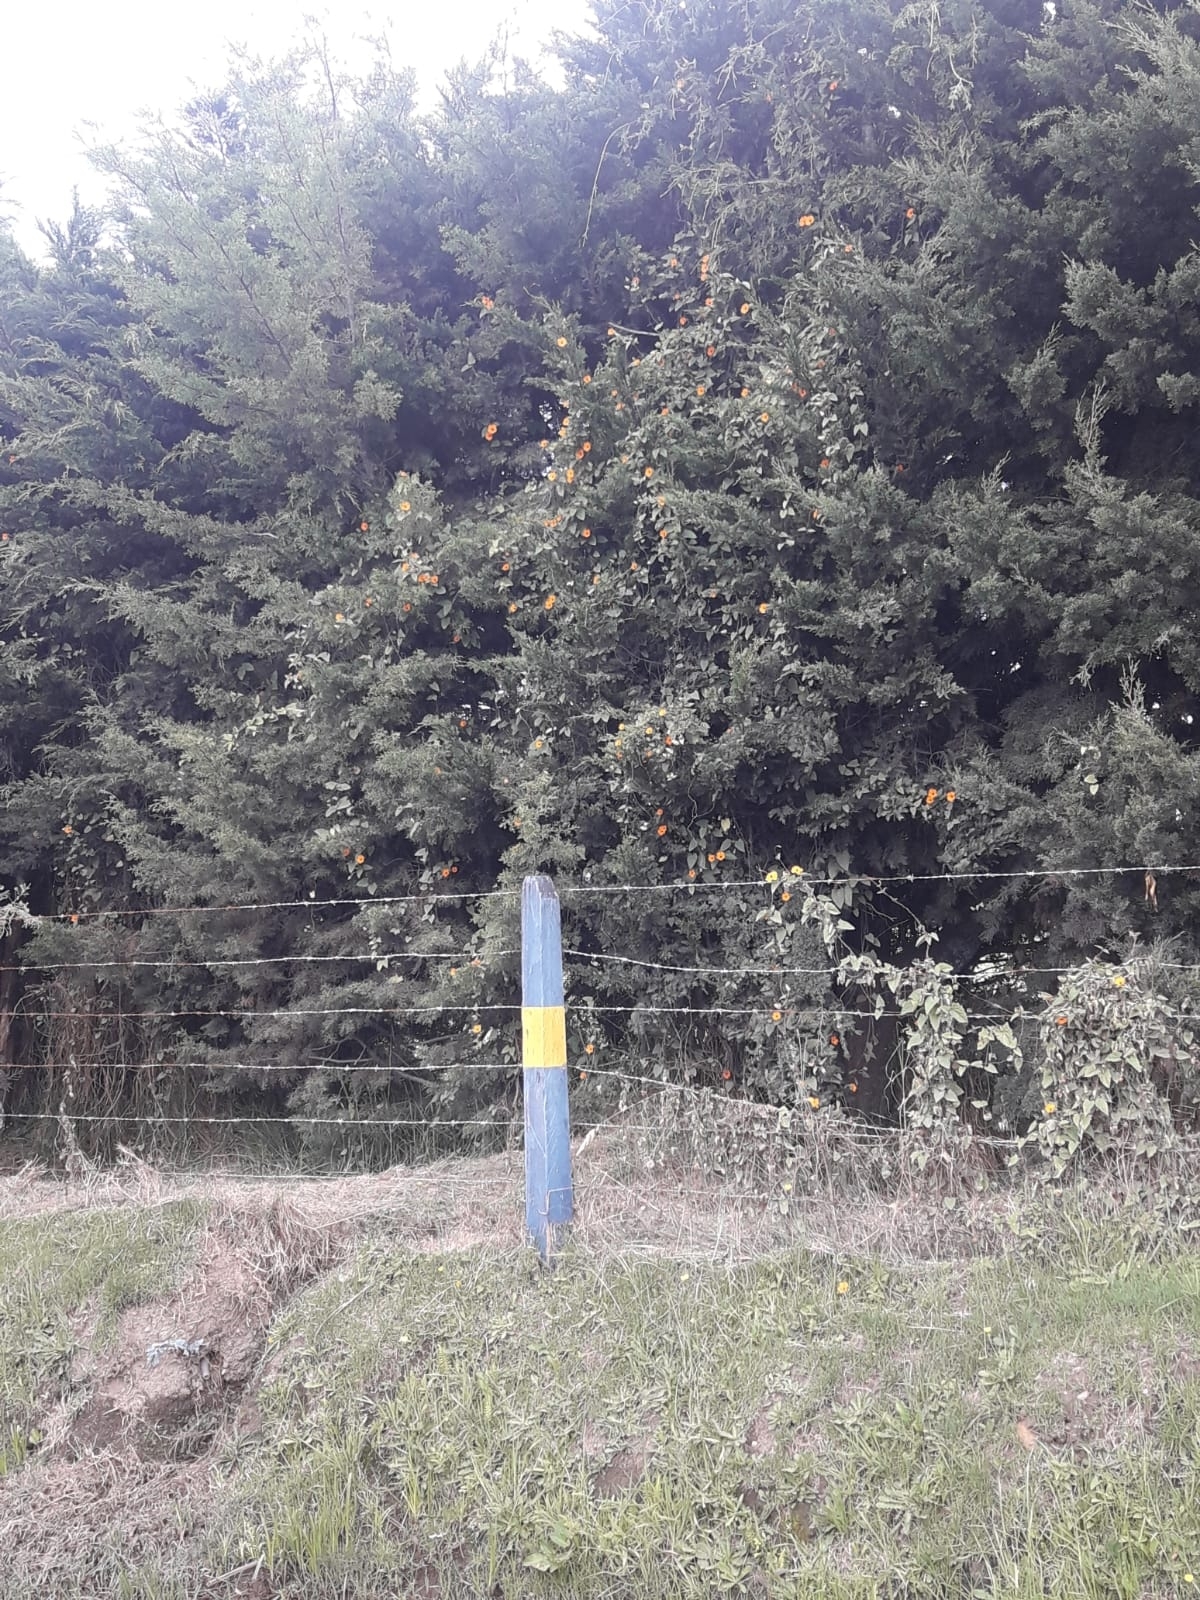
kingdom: Plantae
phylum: Tracheophyta
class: Magnoliopsida
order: Lamiales
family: Acanthaceae
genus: Thunbergia
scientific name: Thunbergia alata
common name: Blackeyed susan vine
